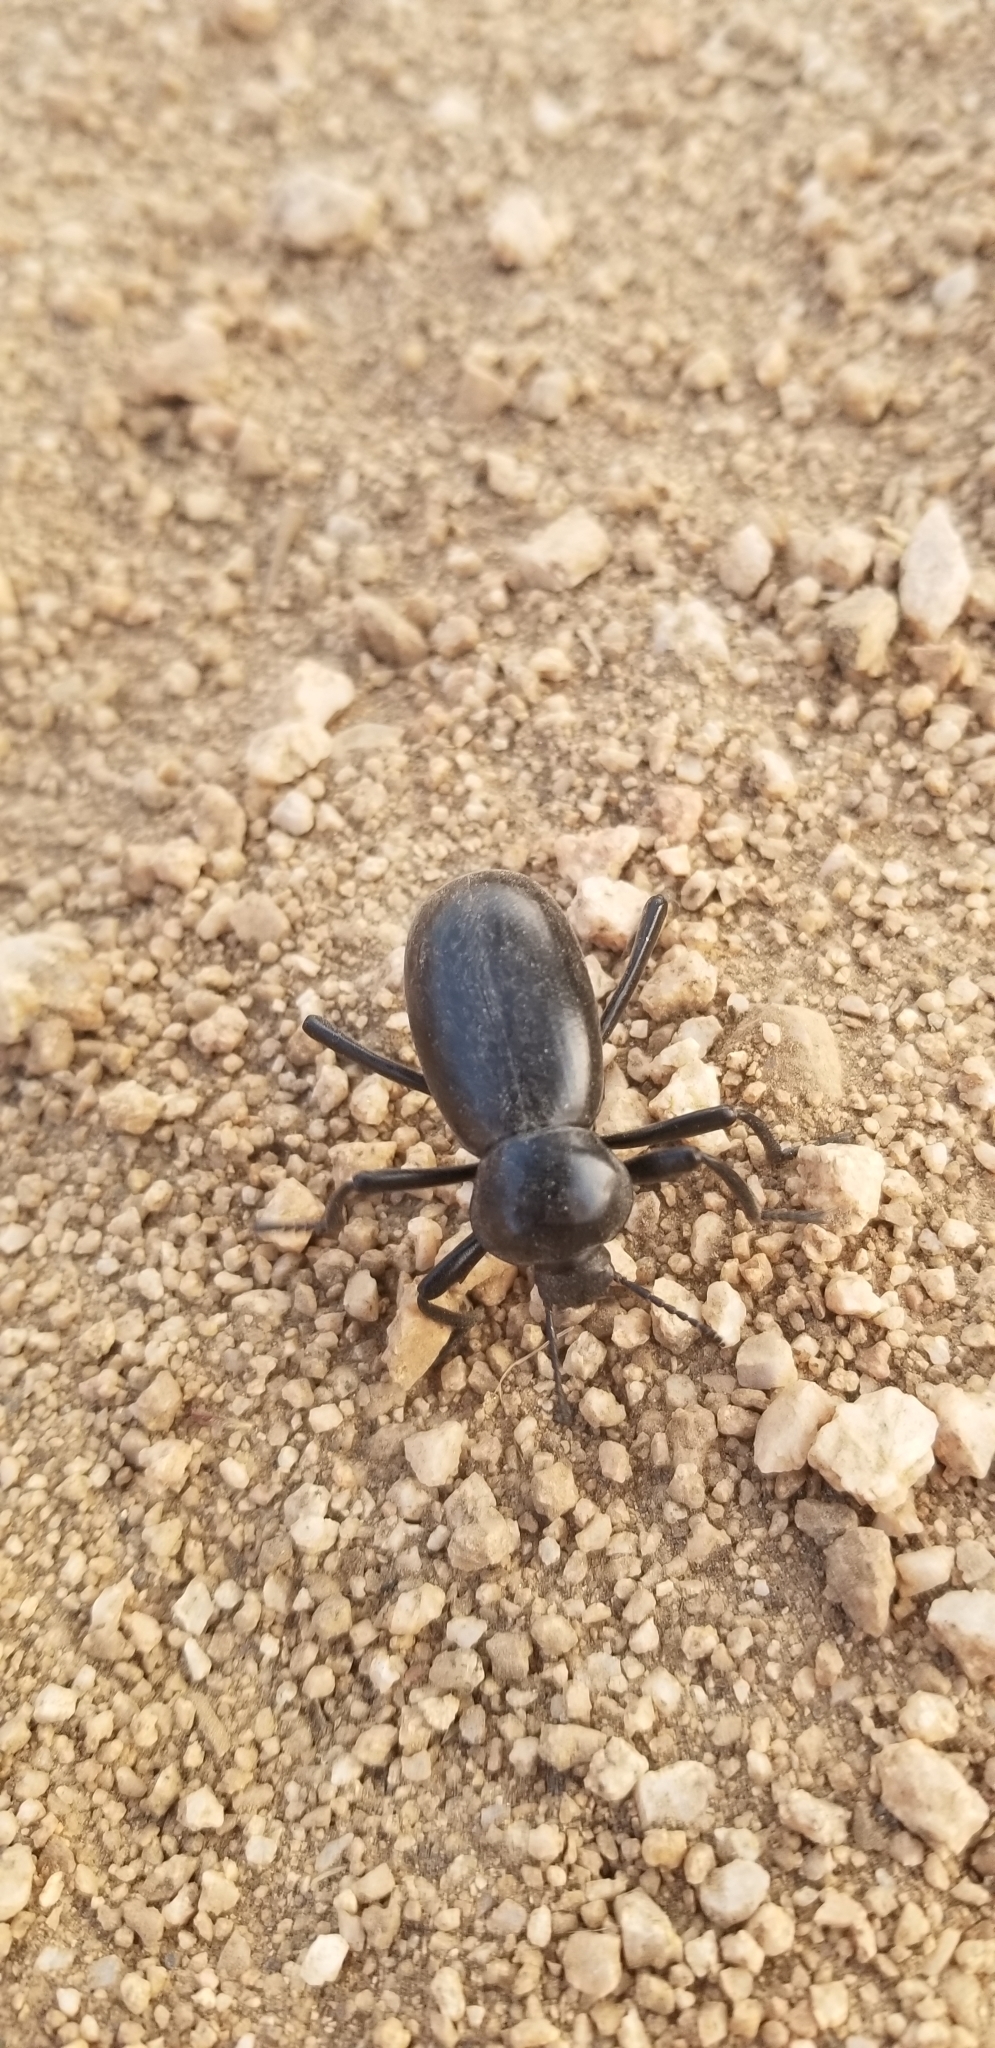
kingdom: Animalia
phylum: Arthropoda
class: Insecta
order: Coleoptera
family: Tenebrionidae
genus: Eleodes
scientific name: Eleodes grandicollis
